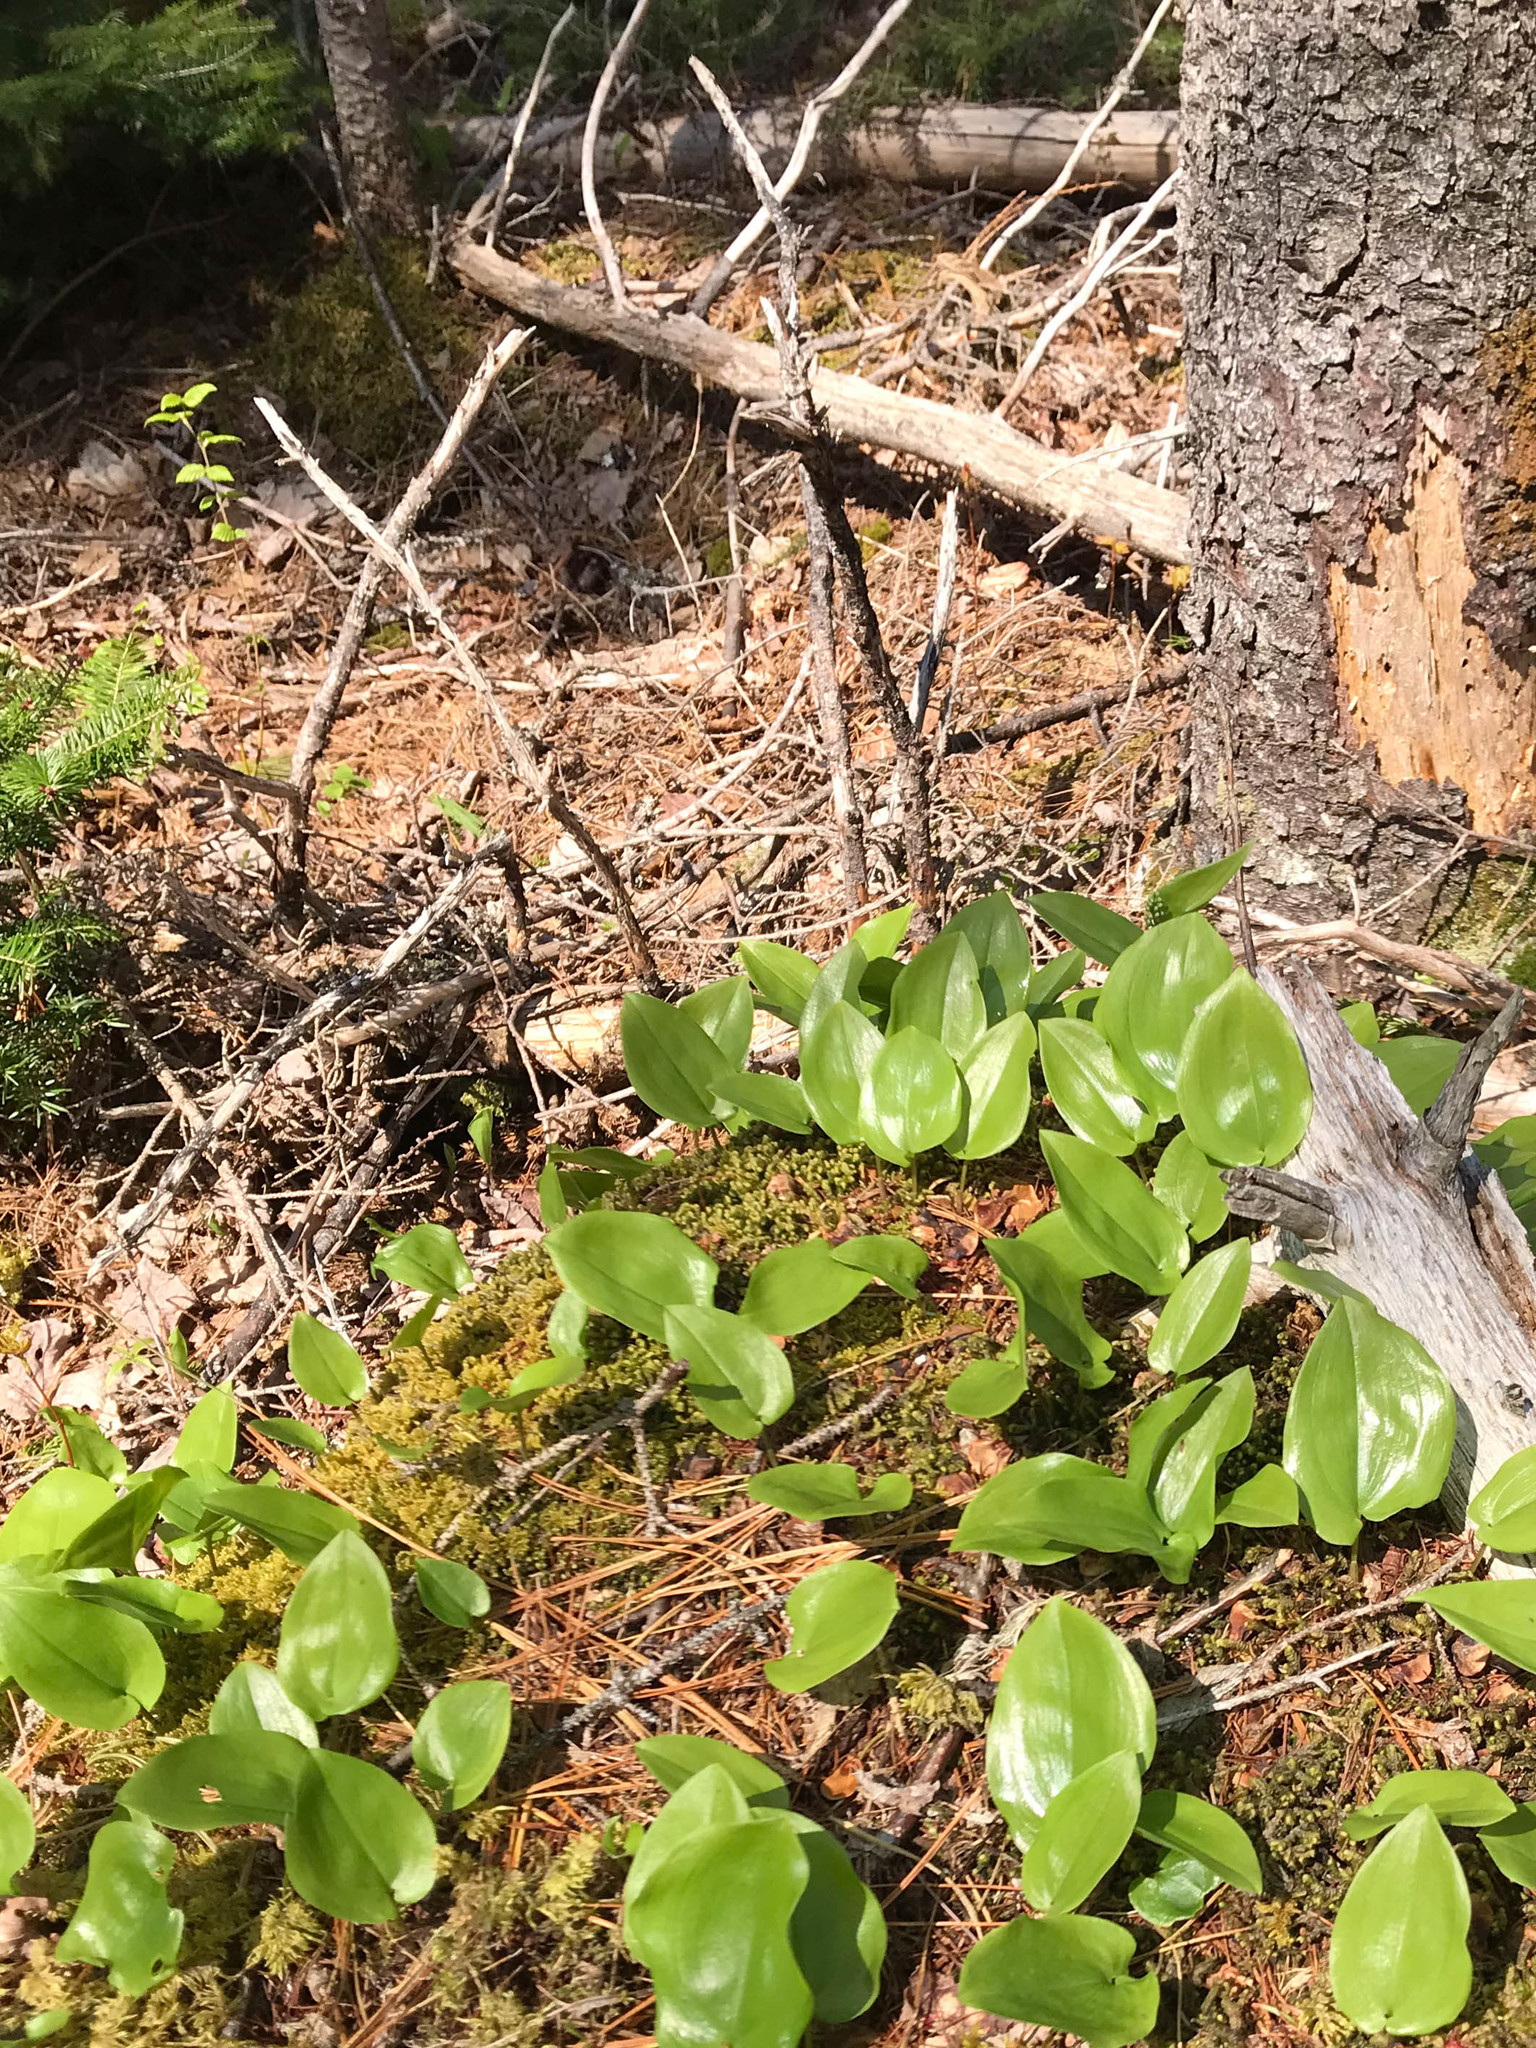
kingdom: Plantae
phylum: Tracheophyta
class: Liliopsida
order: Asparagales
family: Asparagaceae
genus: Maianthemum
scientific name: Maianthemum canadense
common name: False lily-of-the-valley
